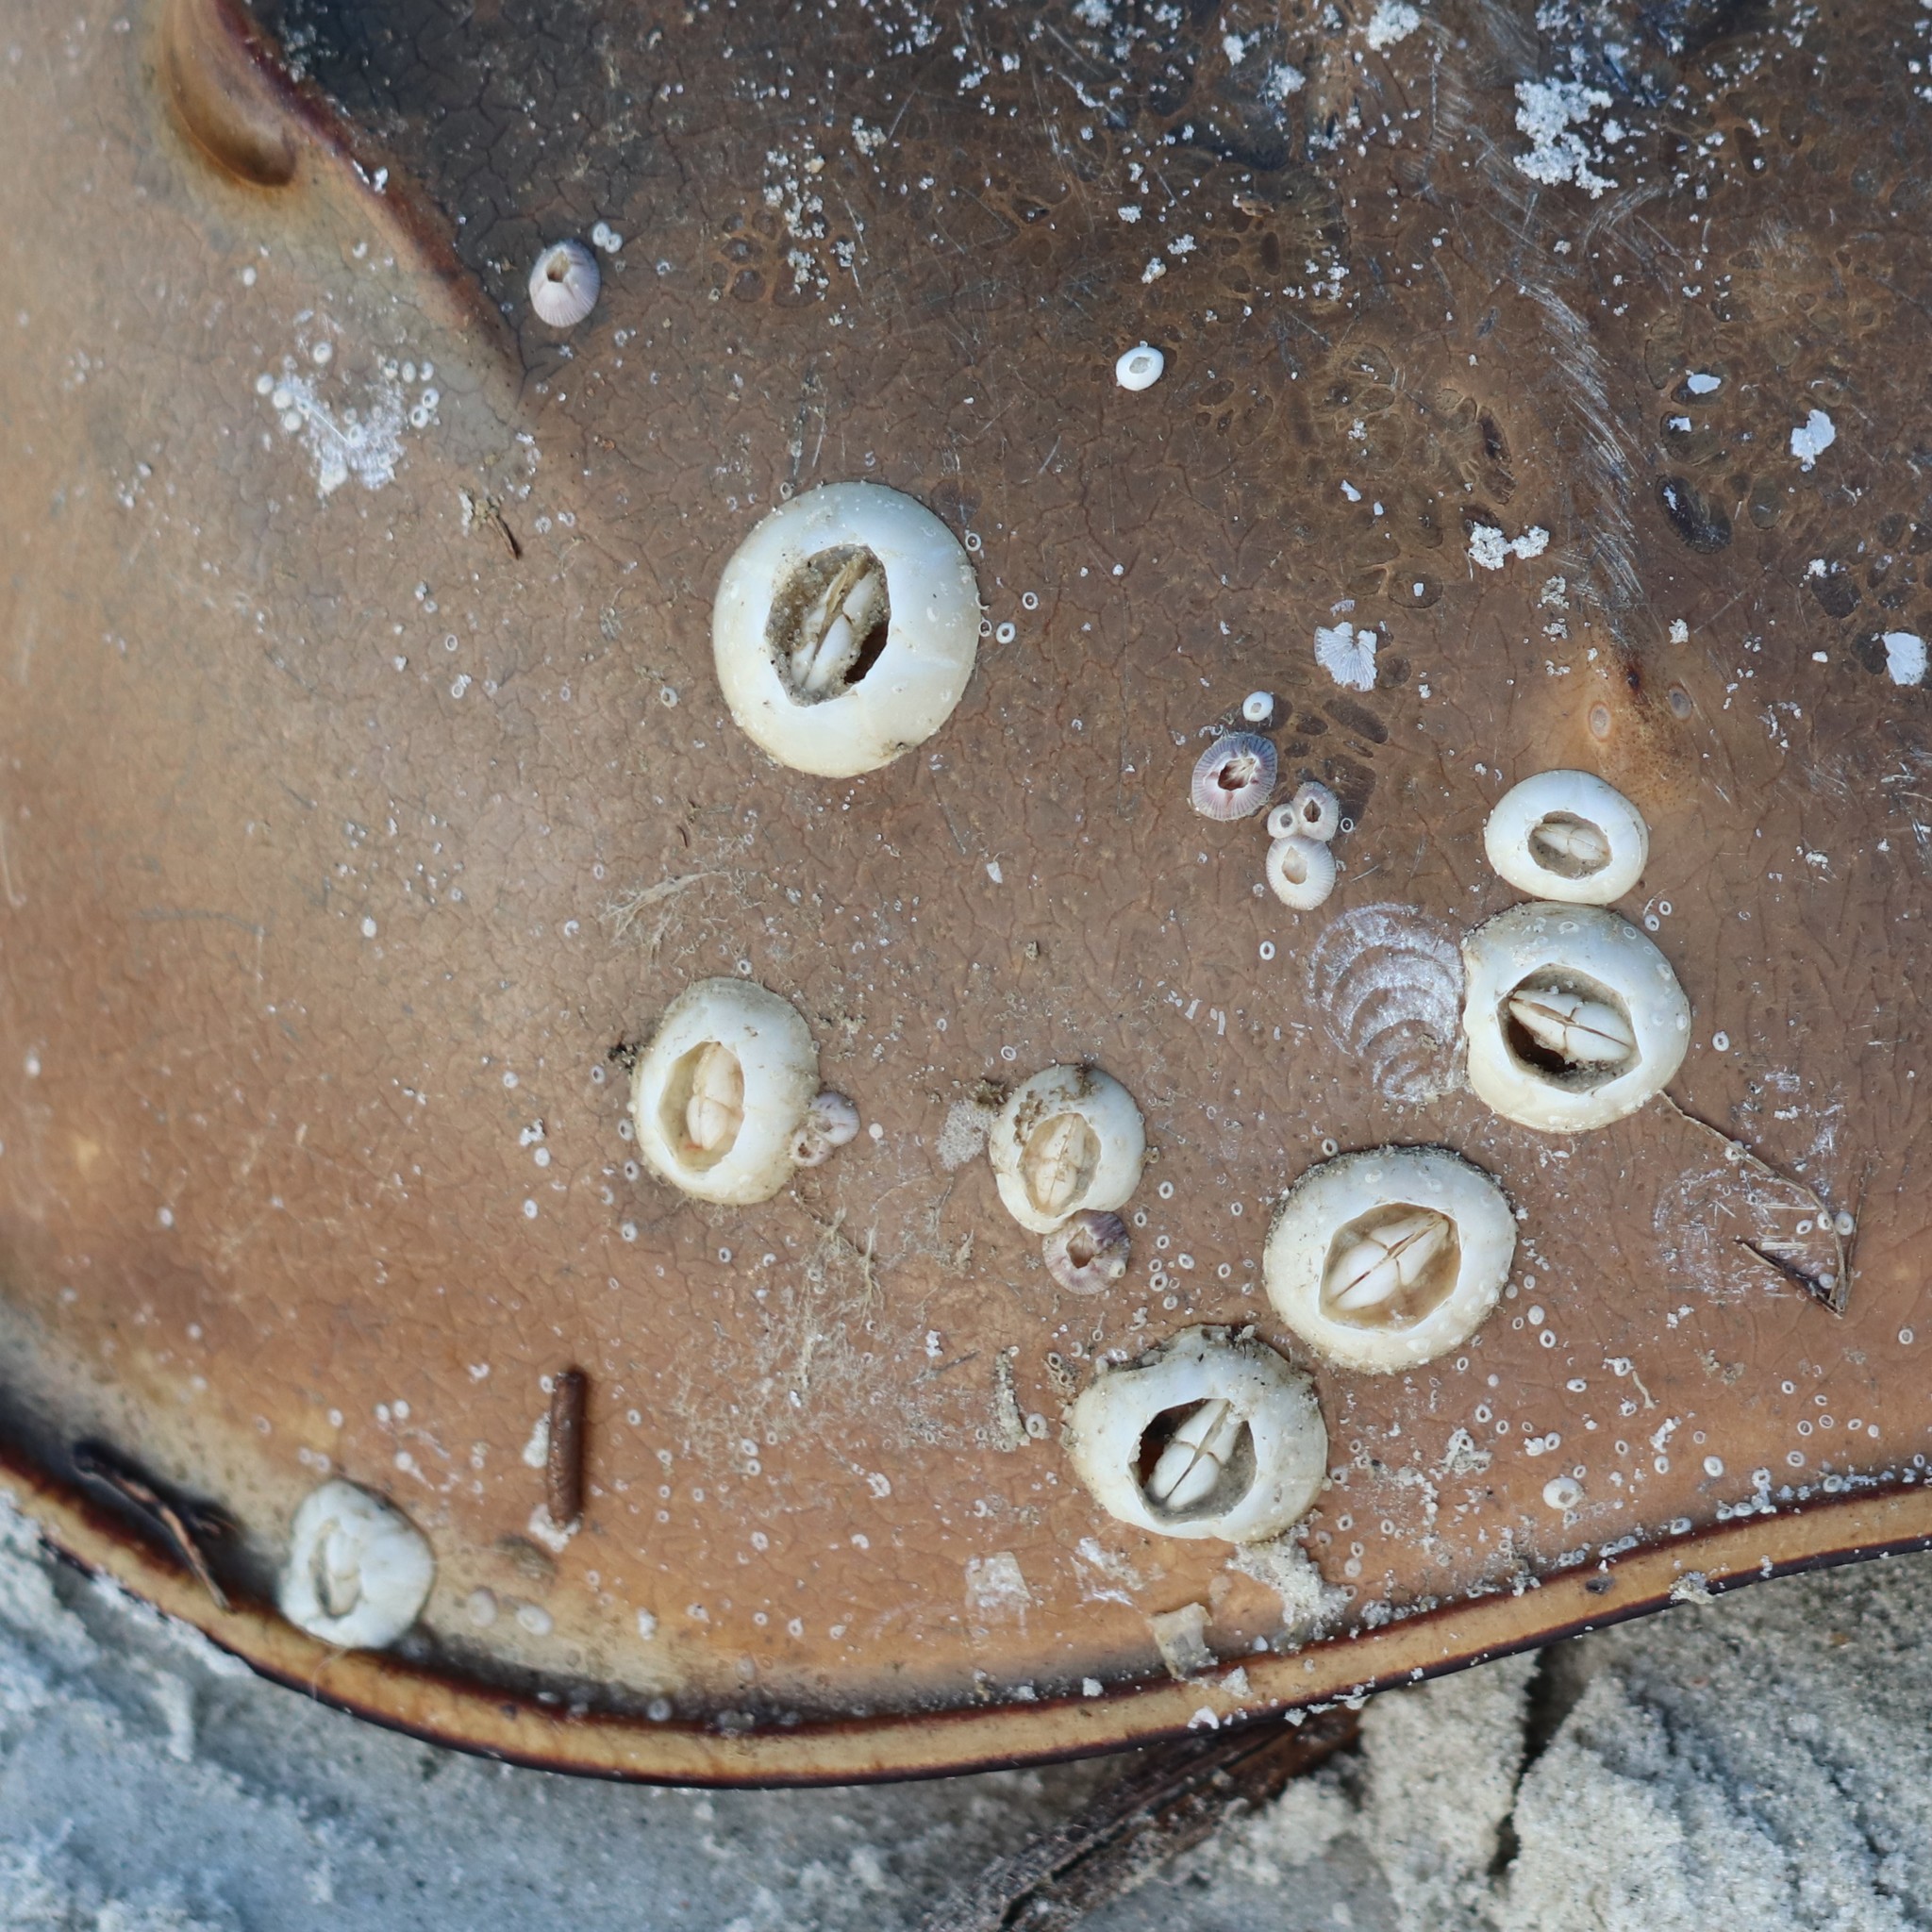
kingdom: Animalia
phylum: Arthropoda
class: Maxillopoda
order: Sessilia
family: Chelonibiidae
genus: Chelonibia
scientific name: Chelonibia testudinaria
